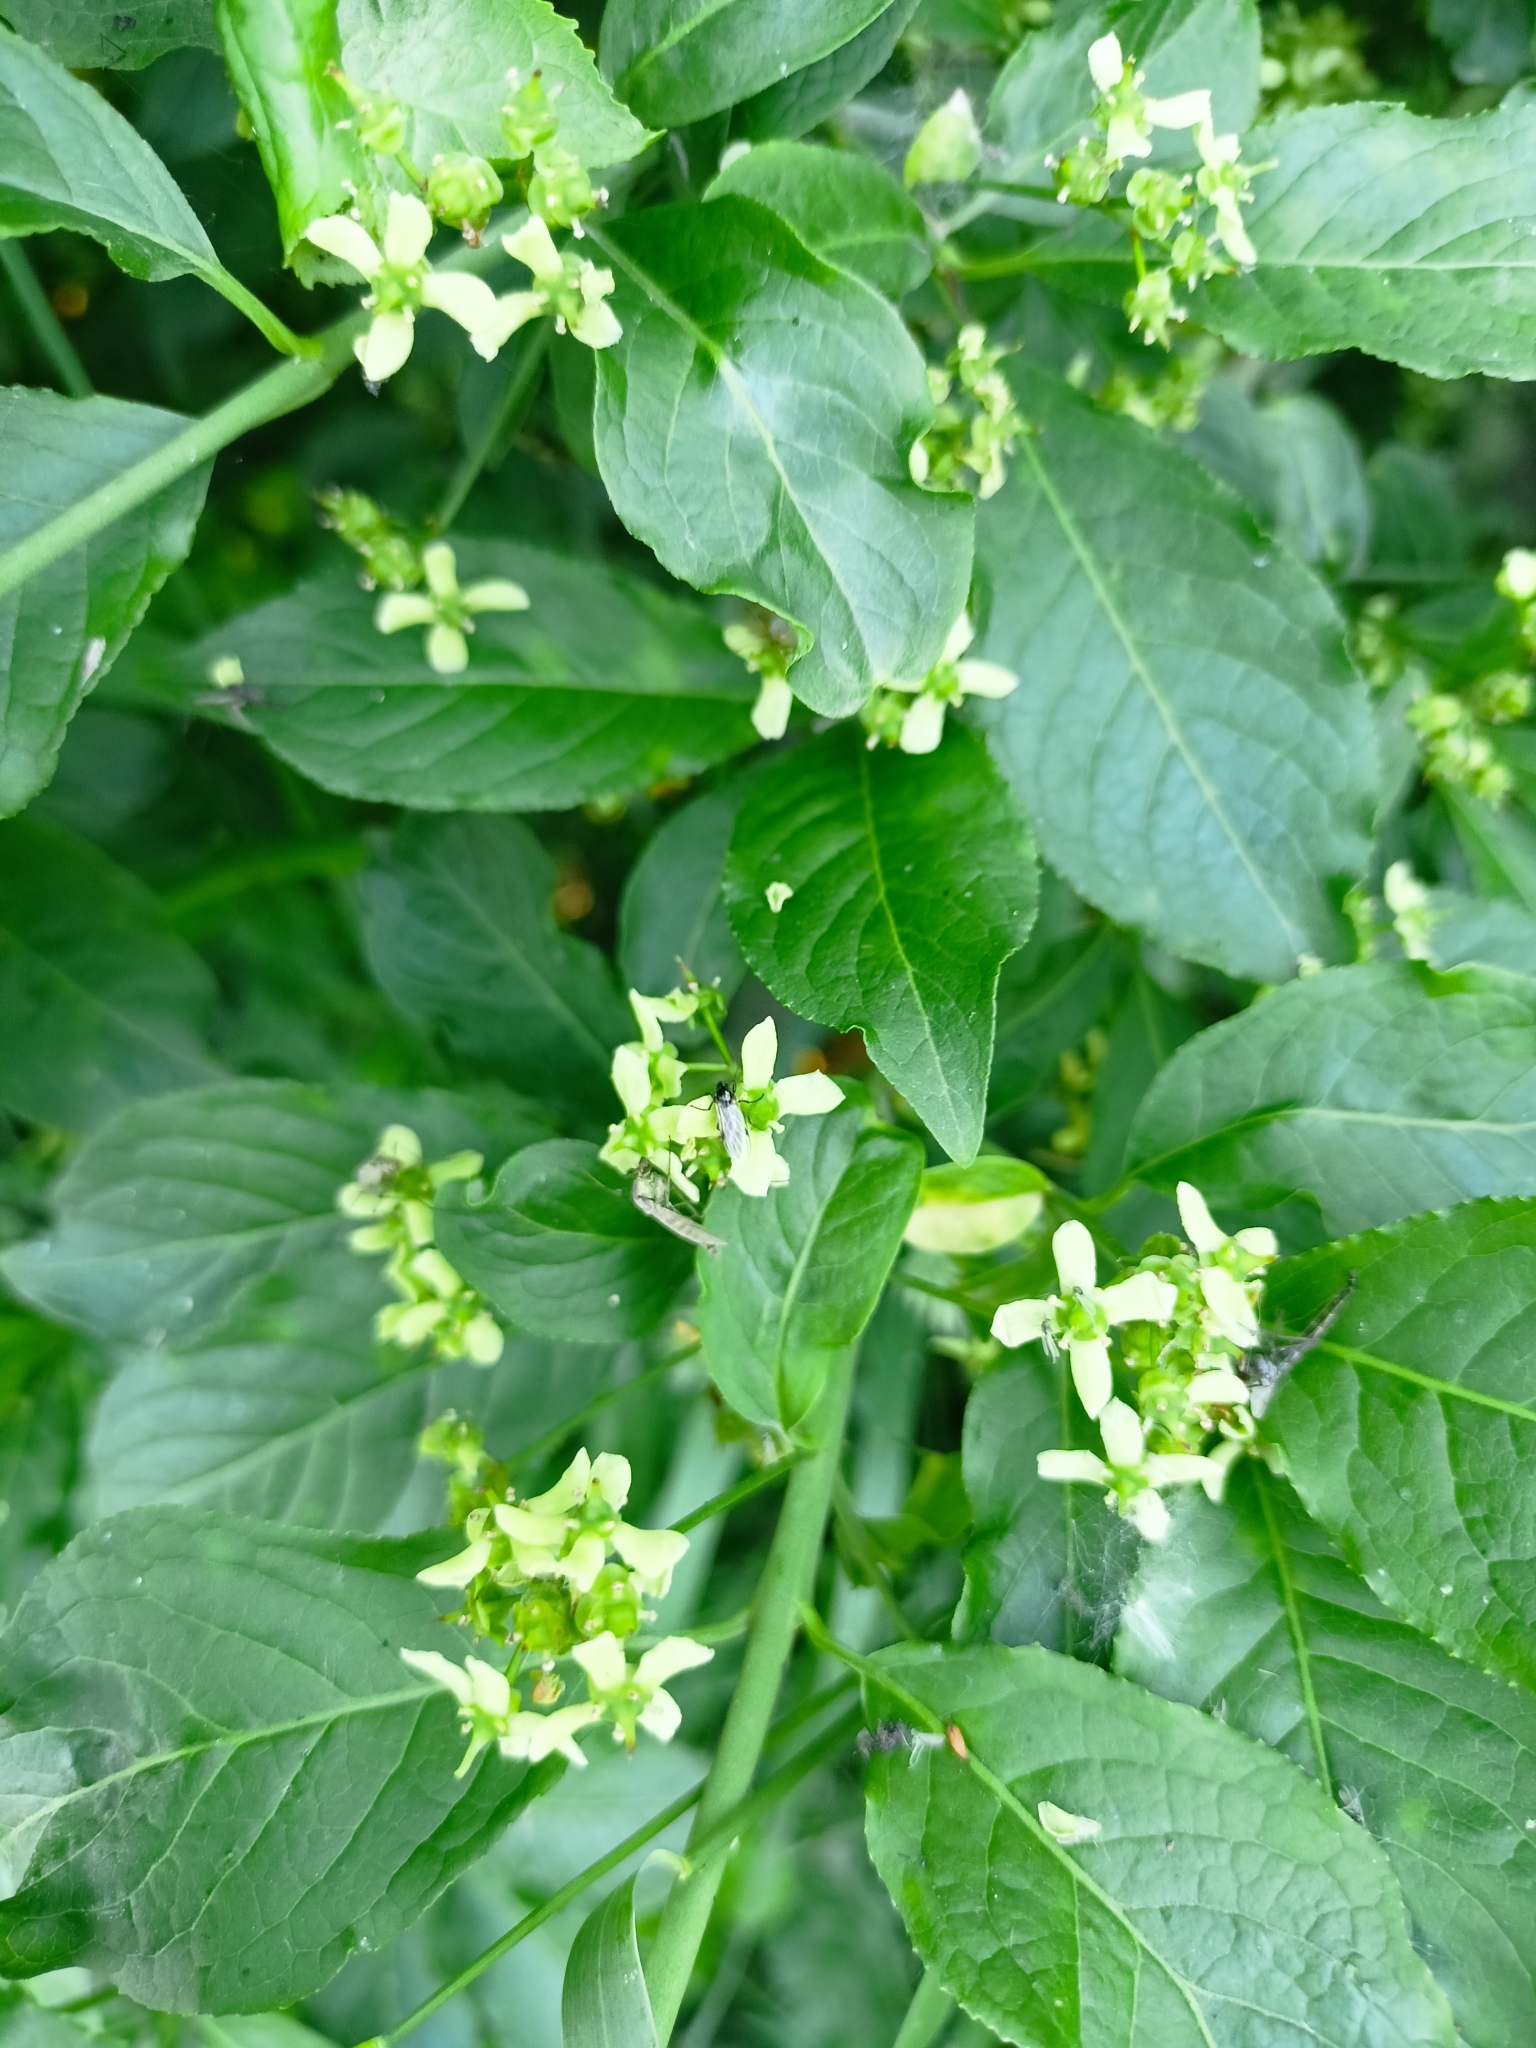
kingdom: Plantae
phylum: Tracheophyta
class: Magnoliopsida
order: Celastrales
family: Celastraceae
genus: Euonymus
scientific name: Euonymus europaeus
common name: Spindle
